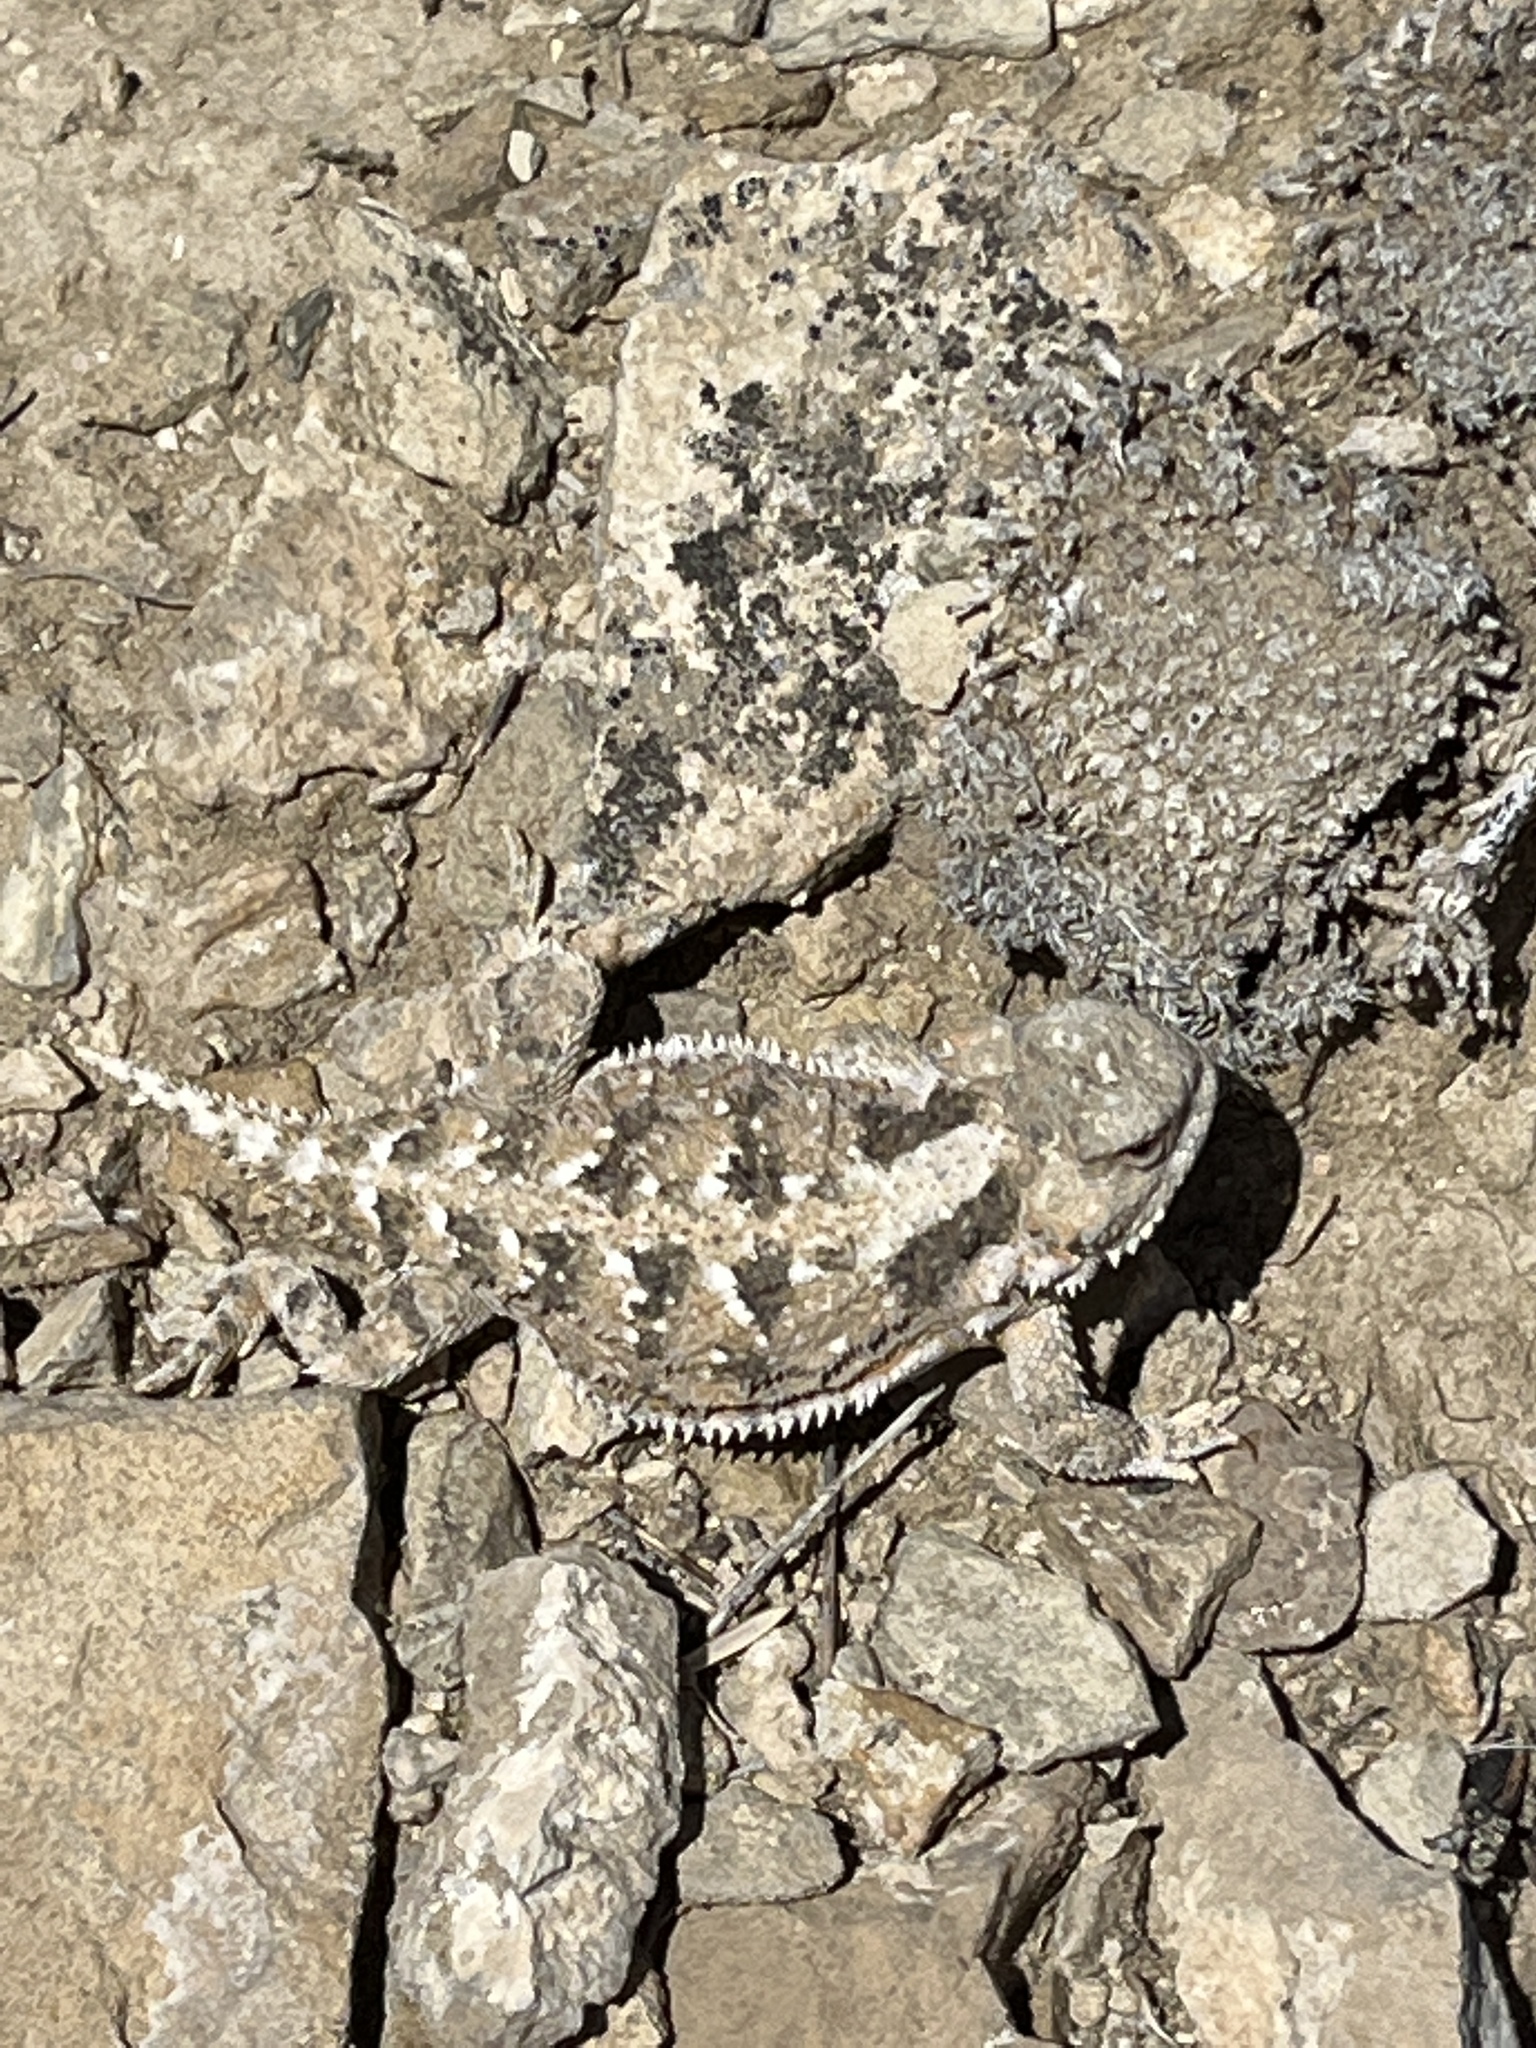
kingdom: Animalia
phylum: Chordata
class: Squamata
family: Phrynosomatidae
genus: Phrynosoma
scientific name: Phrynosoma hernandesi
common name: Greater short-horned lizard
